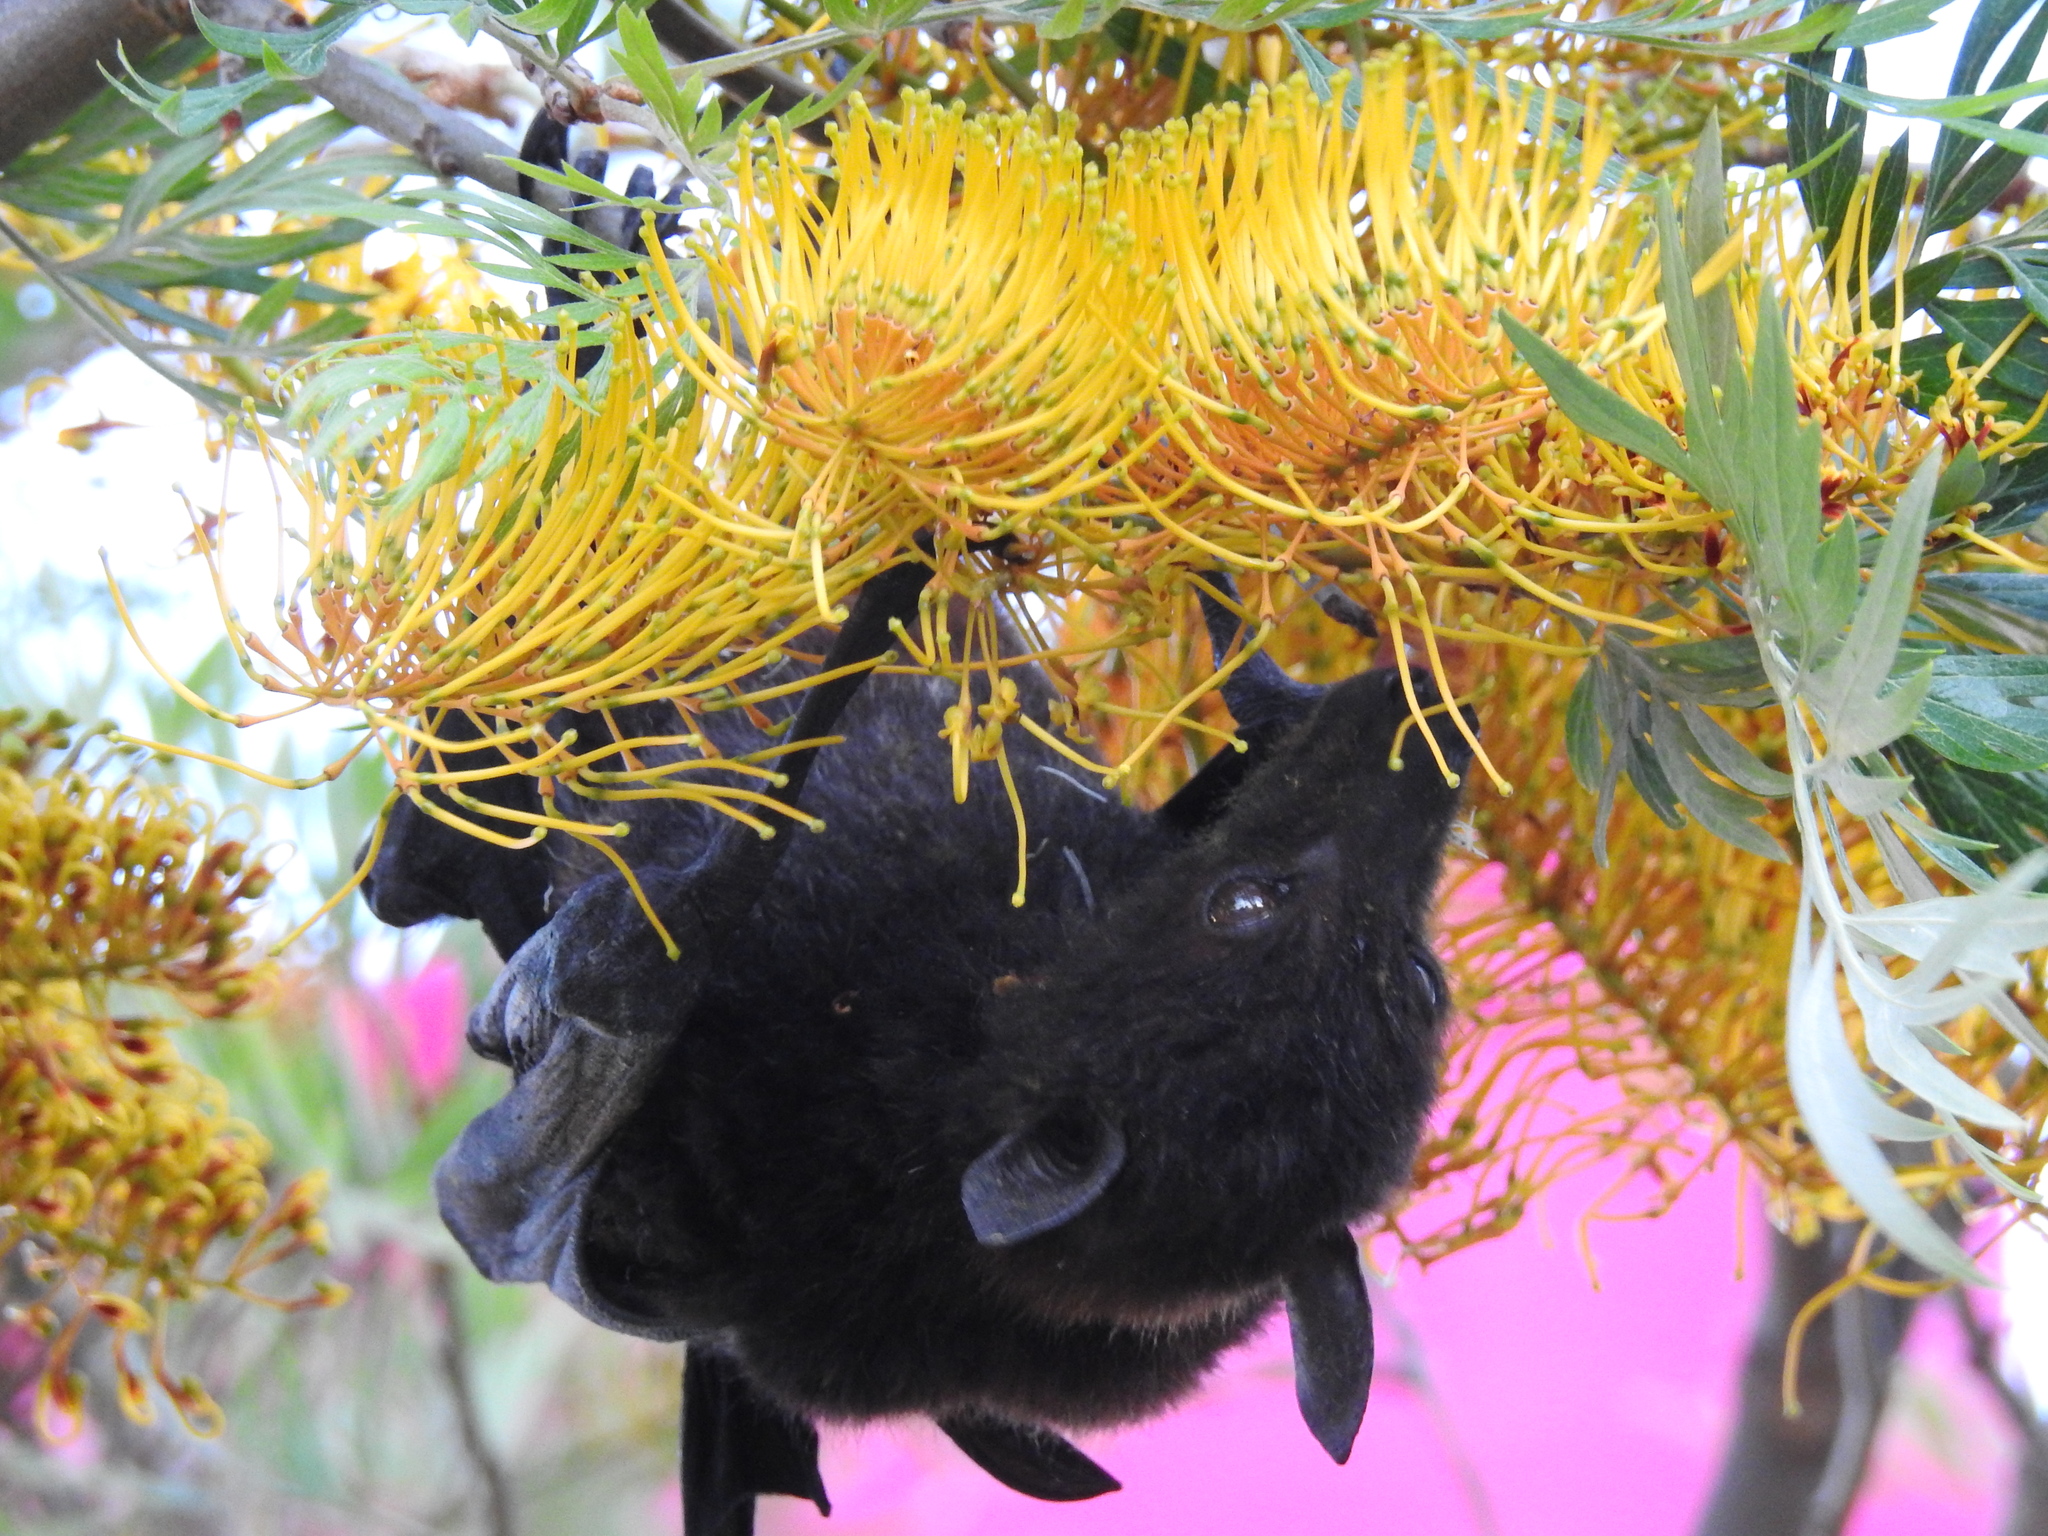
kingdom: Animalia
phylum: Chordata
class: Mammalia
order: Chiroptera
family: Pteropodidae
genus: Pteropus
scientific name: Pteropus alecto
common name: Black flying fox
